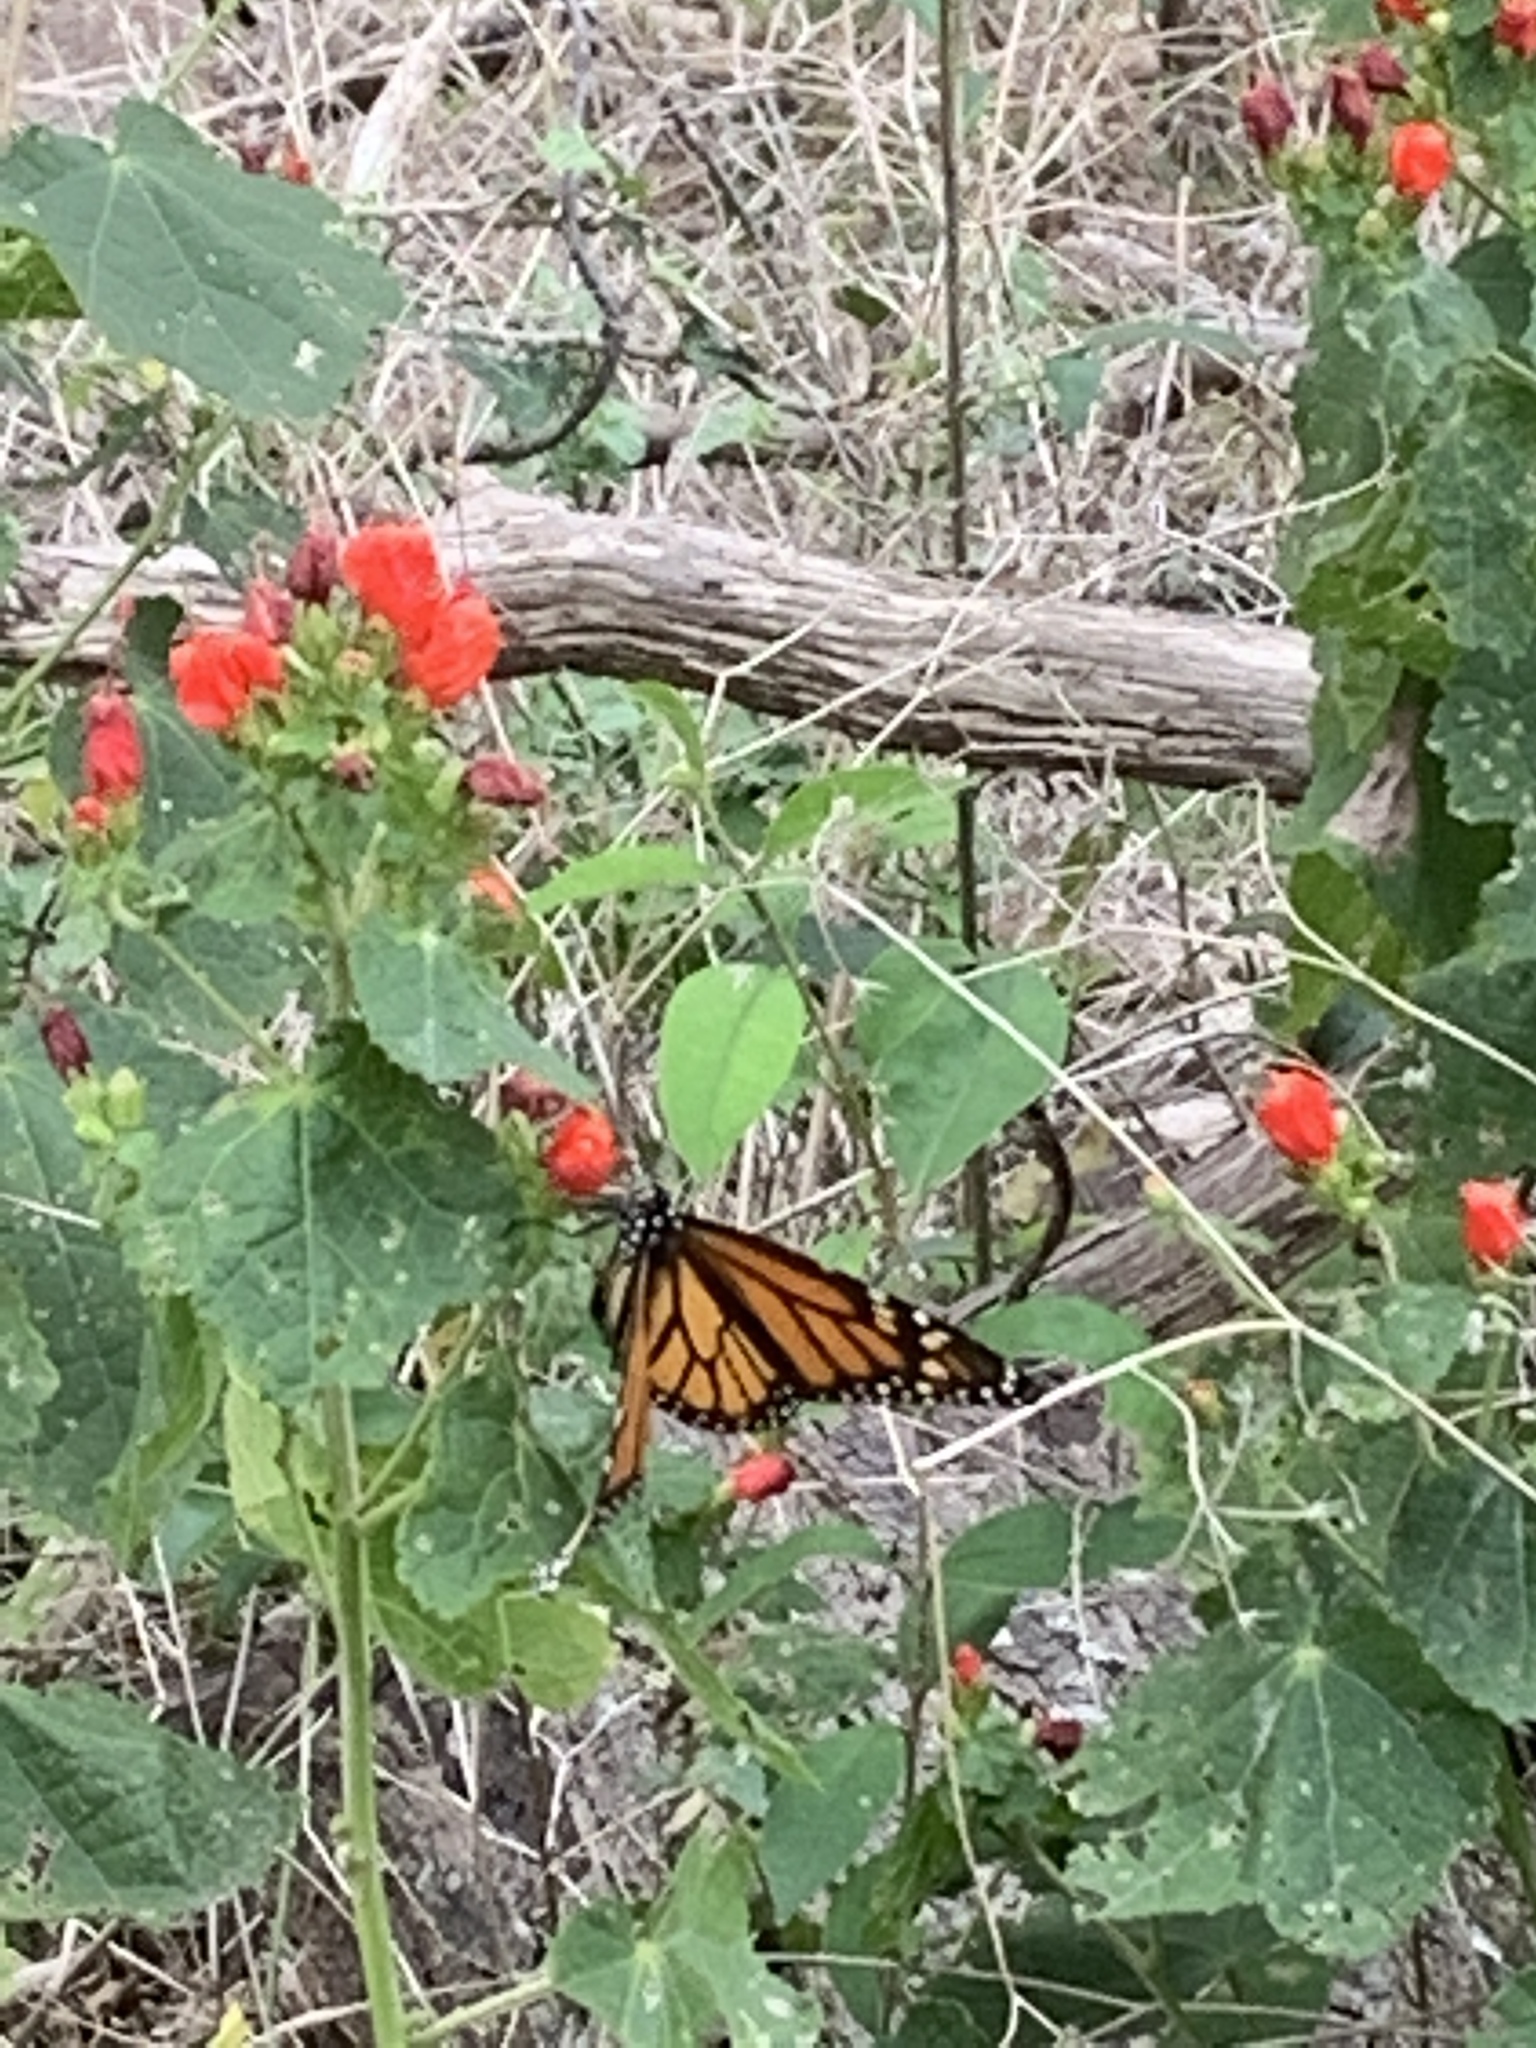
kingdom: Animalia
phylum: Arthropoda
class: Insecta
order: Lepidoptera
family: Nymphalidae
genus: Danaus
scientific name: Danaus plexippus
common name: Monarch
